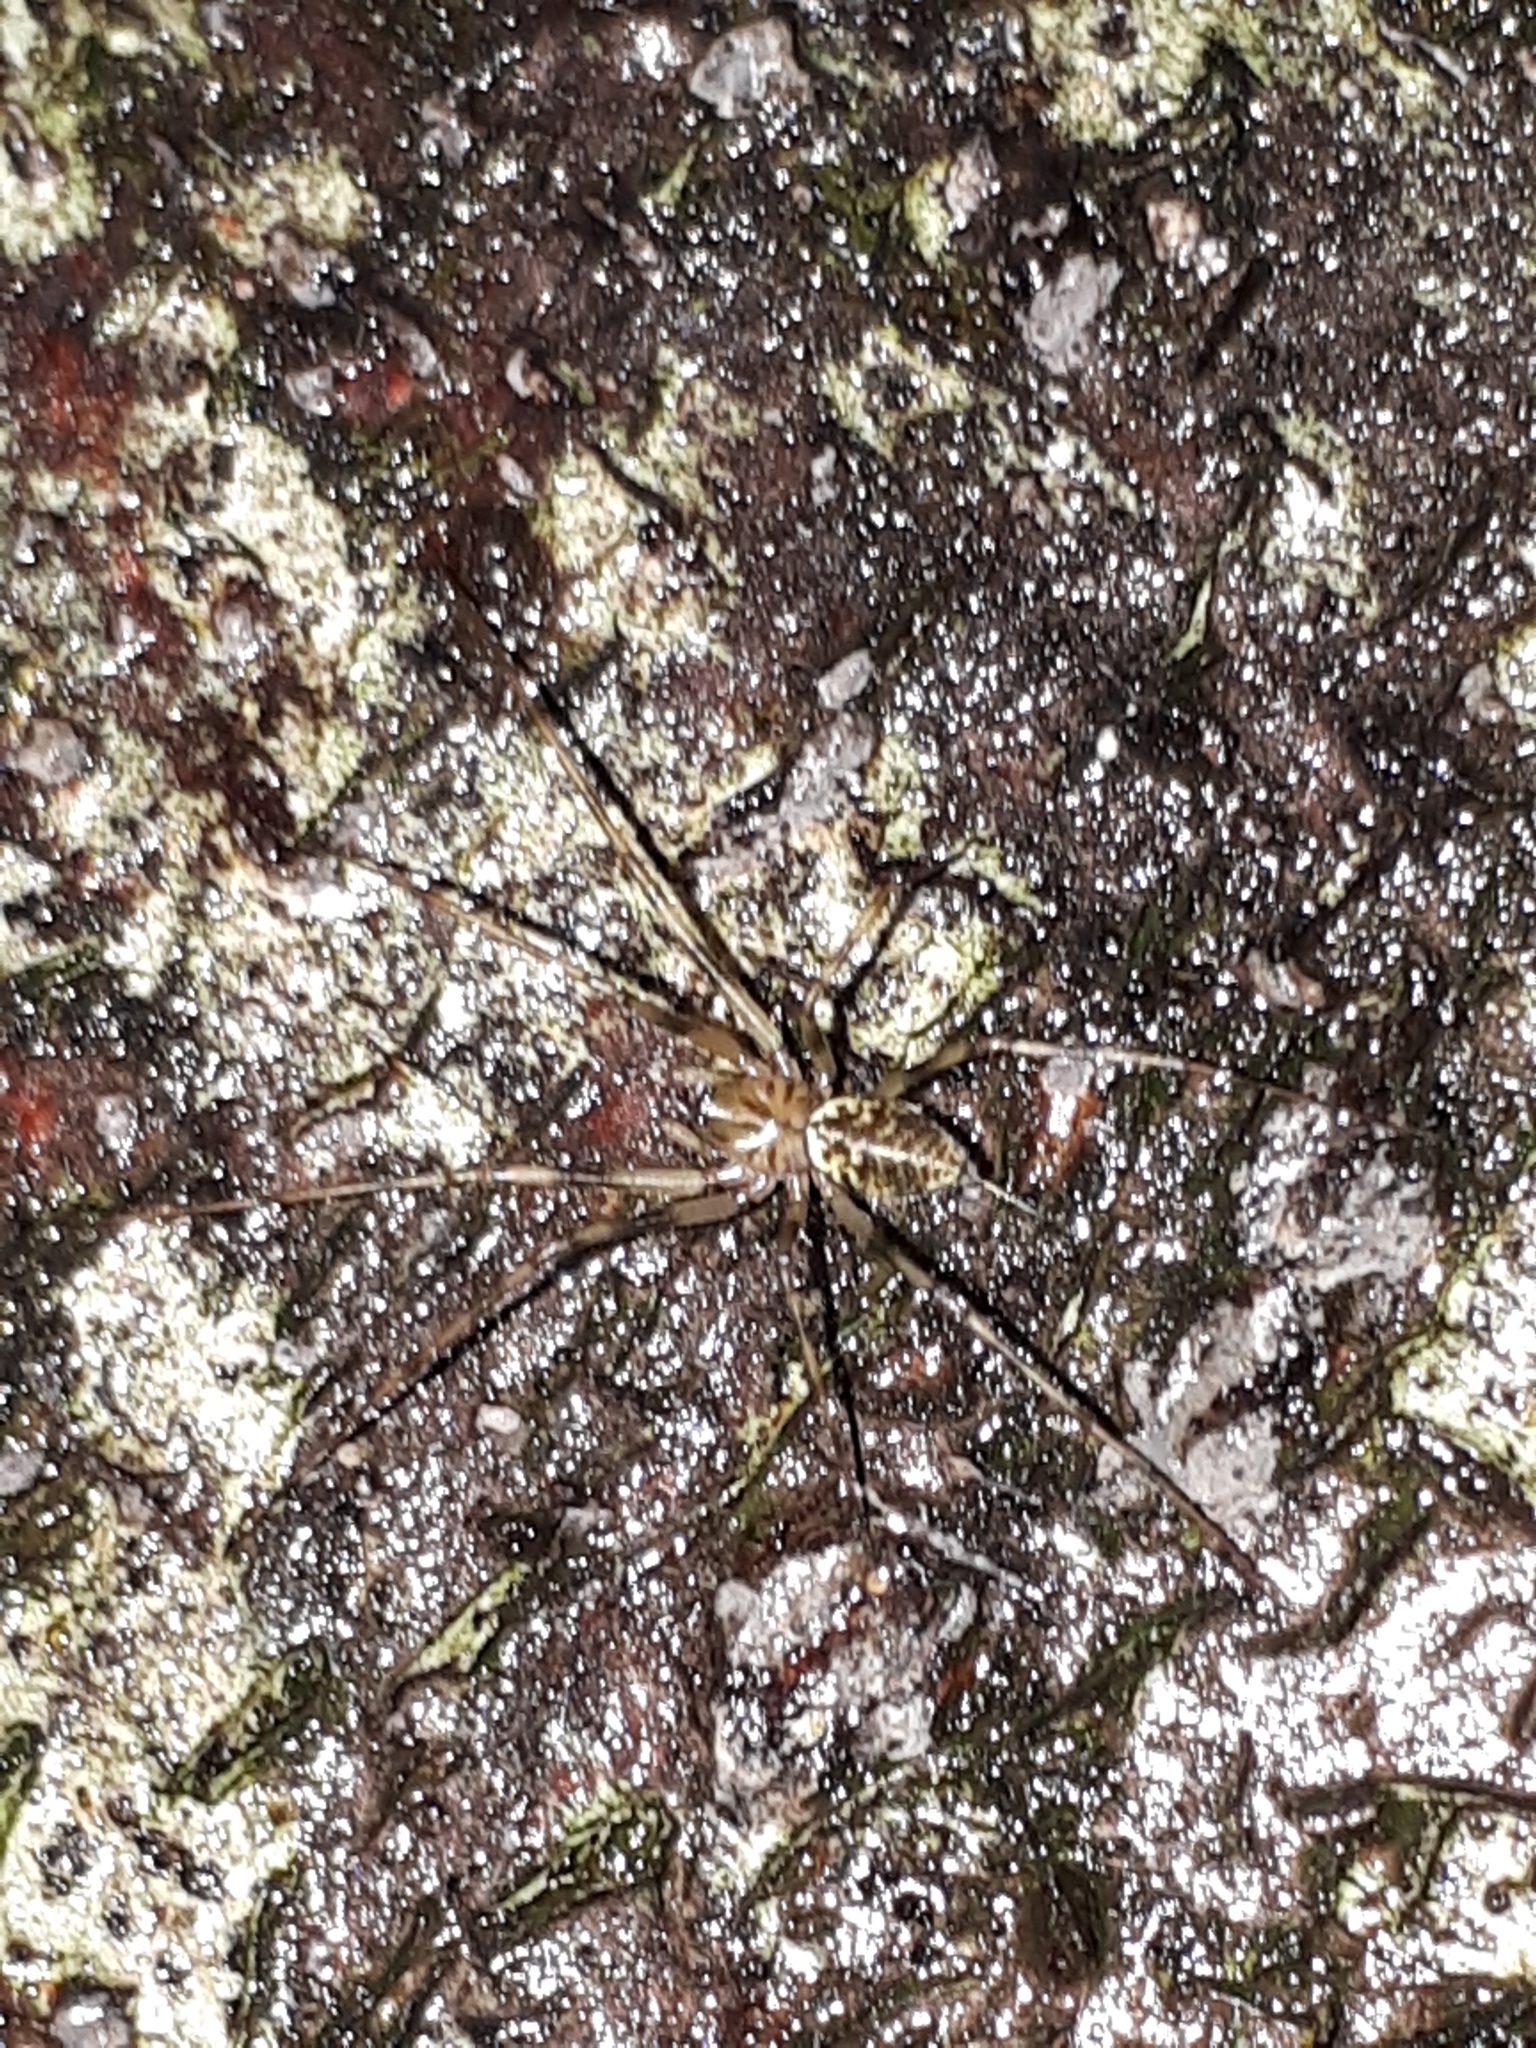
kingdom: Animalia
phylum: Arthropoda
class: Arachnida
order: Araneae
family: Linyphiidae
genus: Drapetisca
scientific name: Drapetisca socialis
